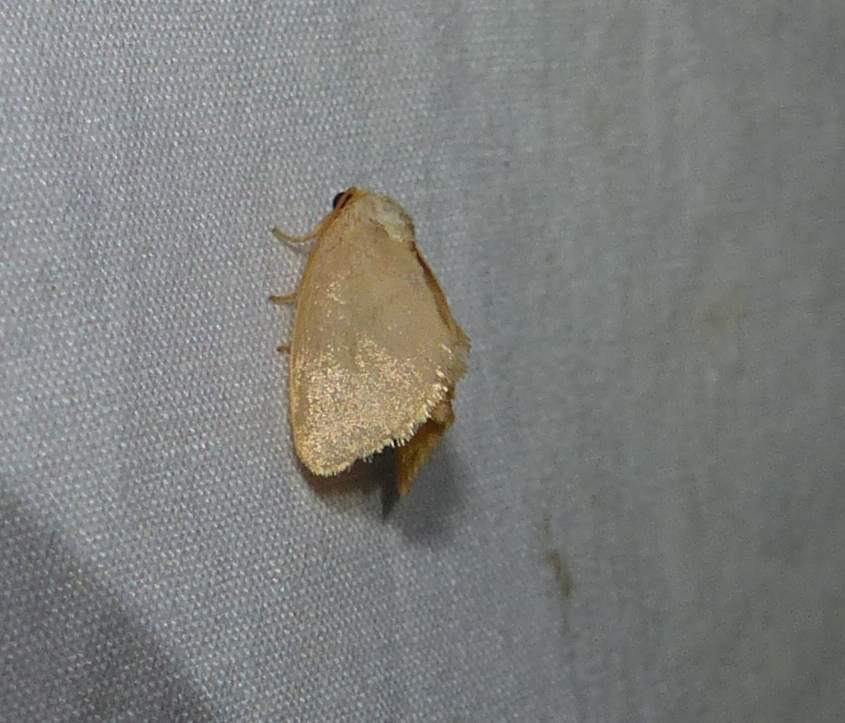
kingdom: Animalia
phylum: Arthropoda
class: Insecta
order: Lepidoptera
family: Limacodidae
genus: Tortricidia
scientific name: Tortricidia pallida
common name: Red-crossed button slug moth
